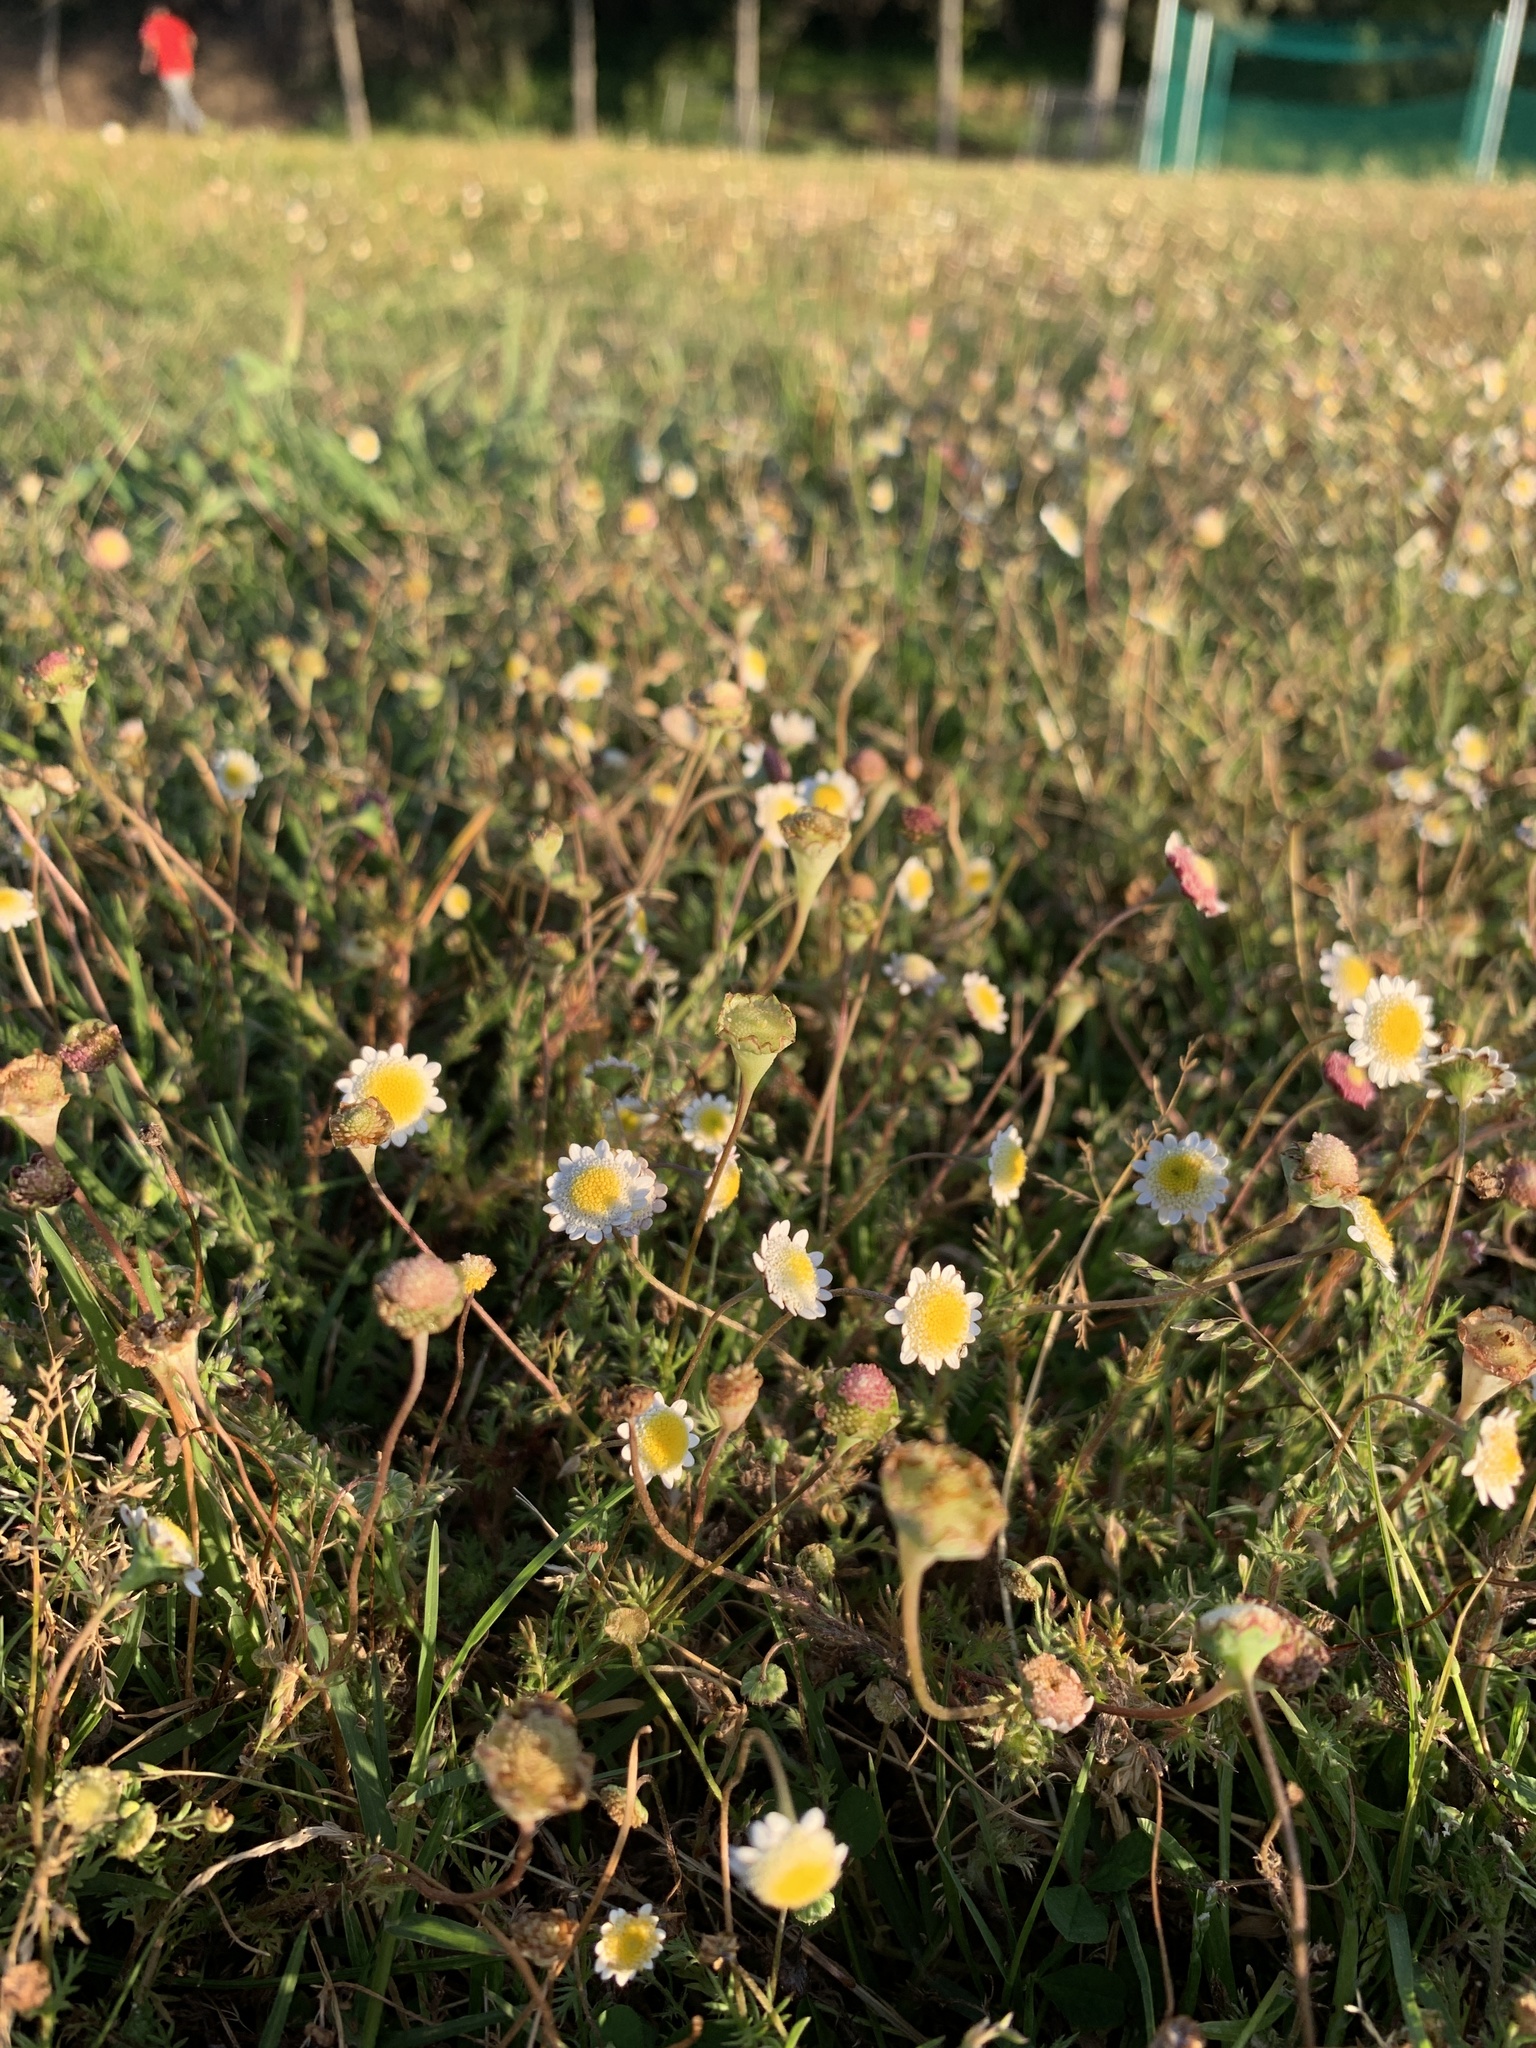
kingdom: Plantae
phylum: Tracheophyta
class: Magnoliopsida
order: Asterales
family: Asteraceae
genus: Cotula
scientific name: Cotula turbinata
